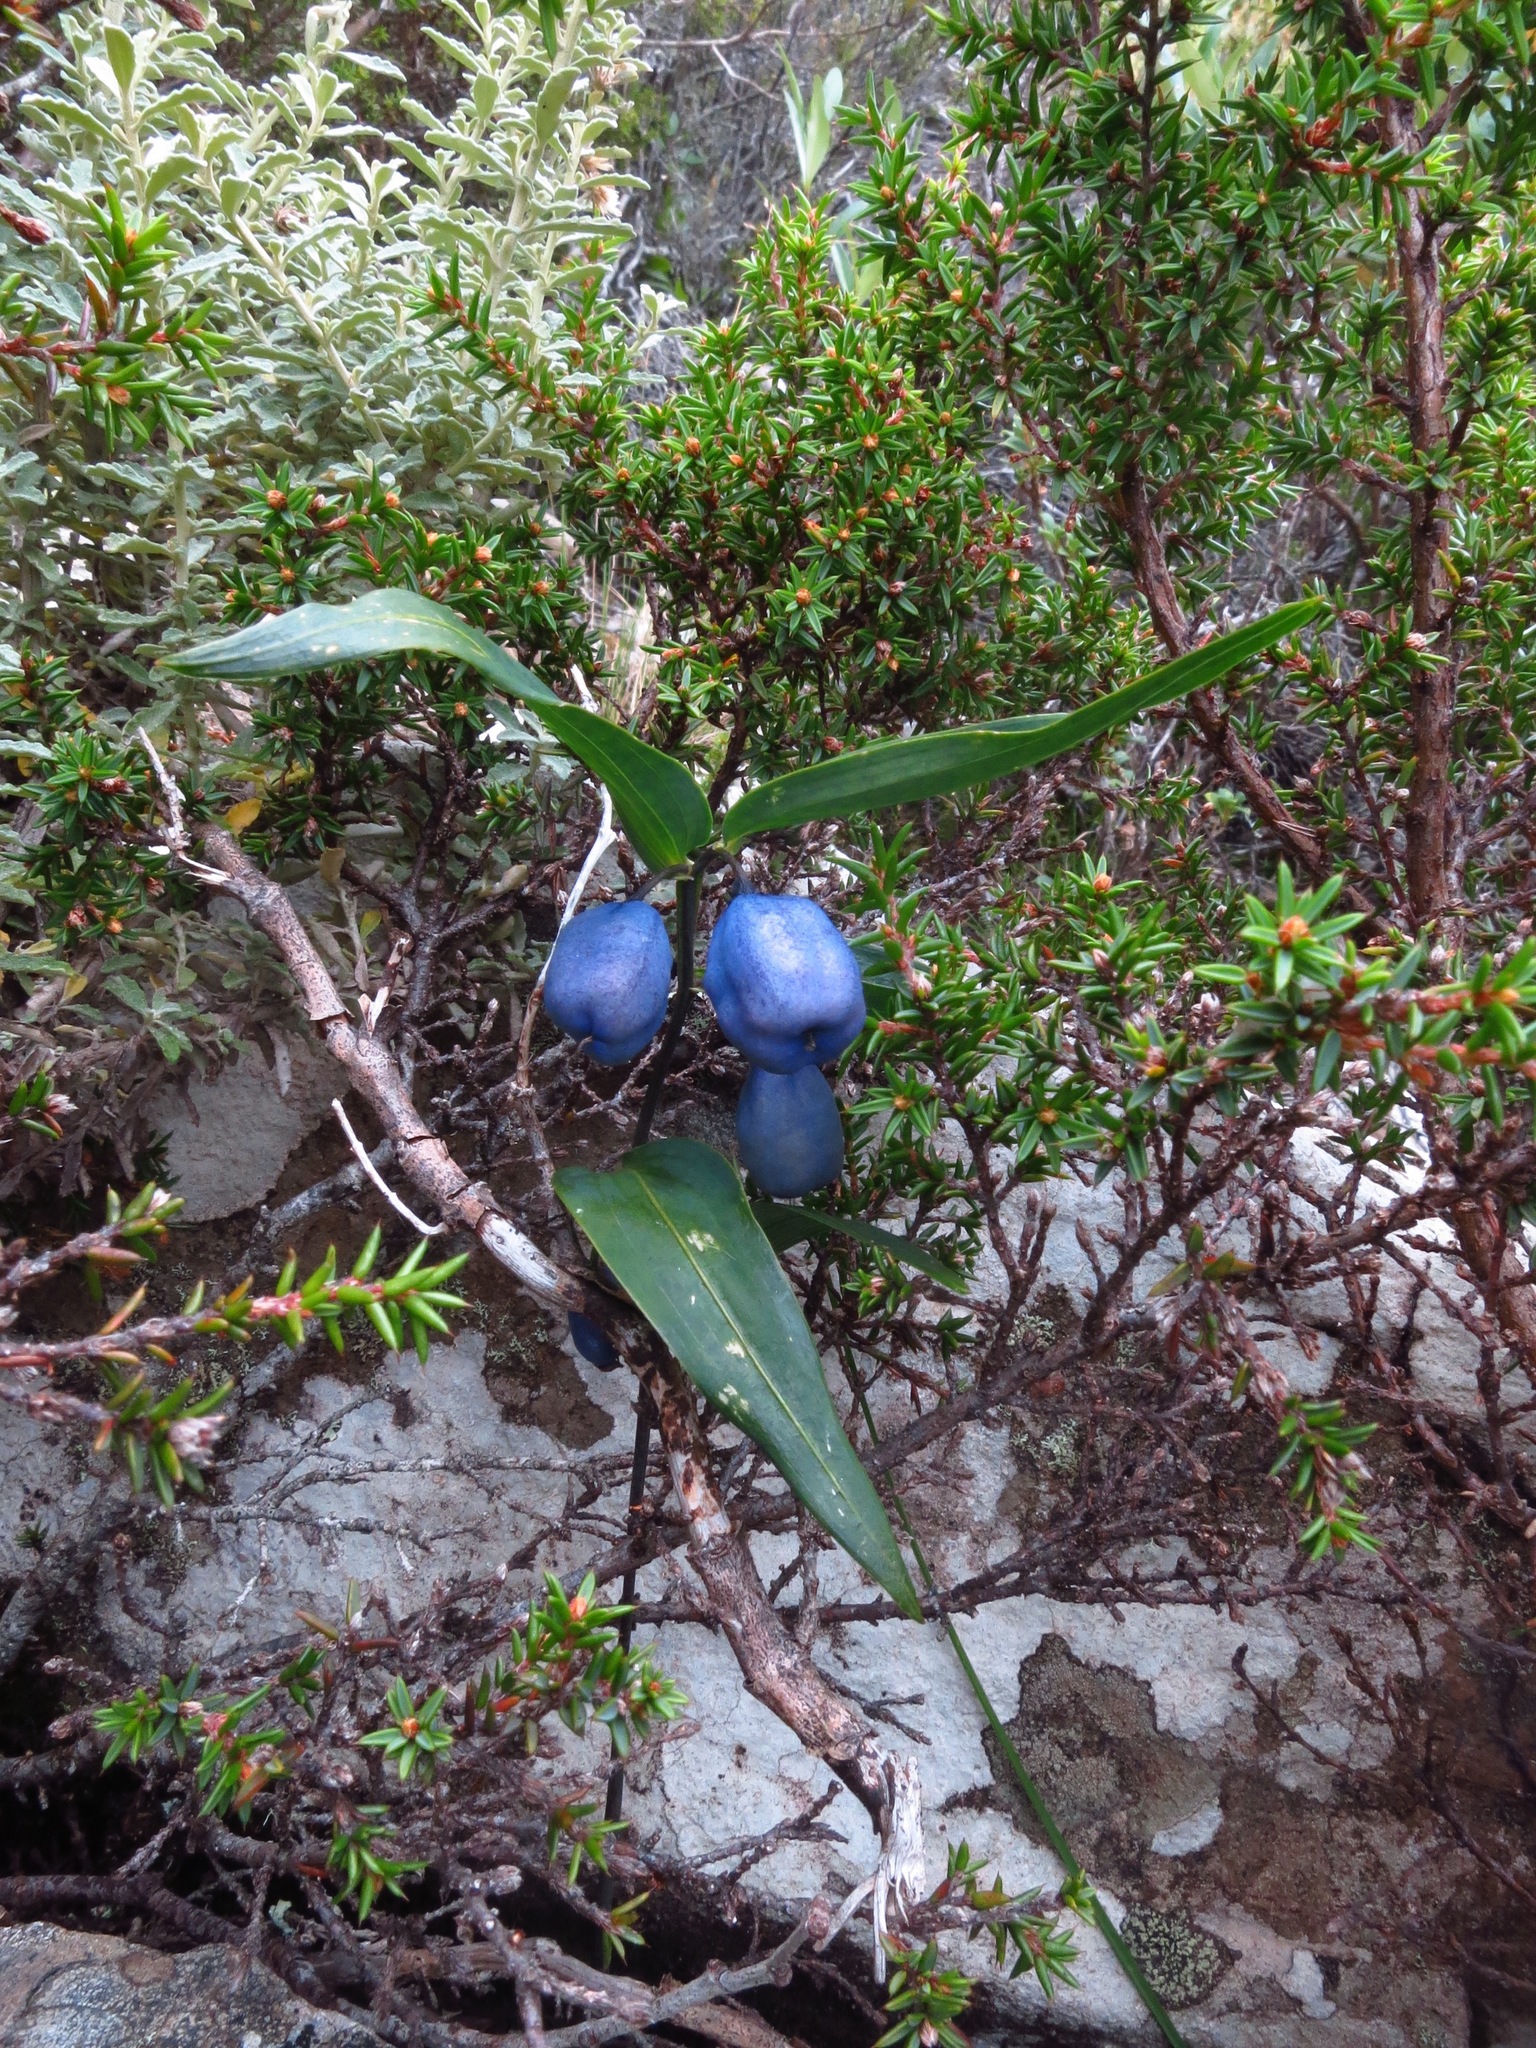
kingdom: Plantae
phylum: Tracheophyta
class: Liliopsida
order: Liliales
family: Alstroemeriaceae
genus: Drymophila
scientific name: Drymophila cyanocarpa
